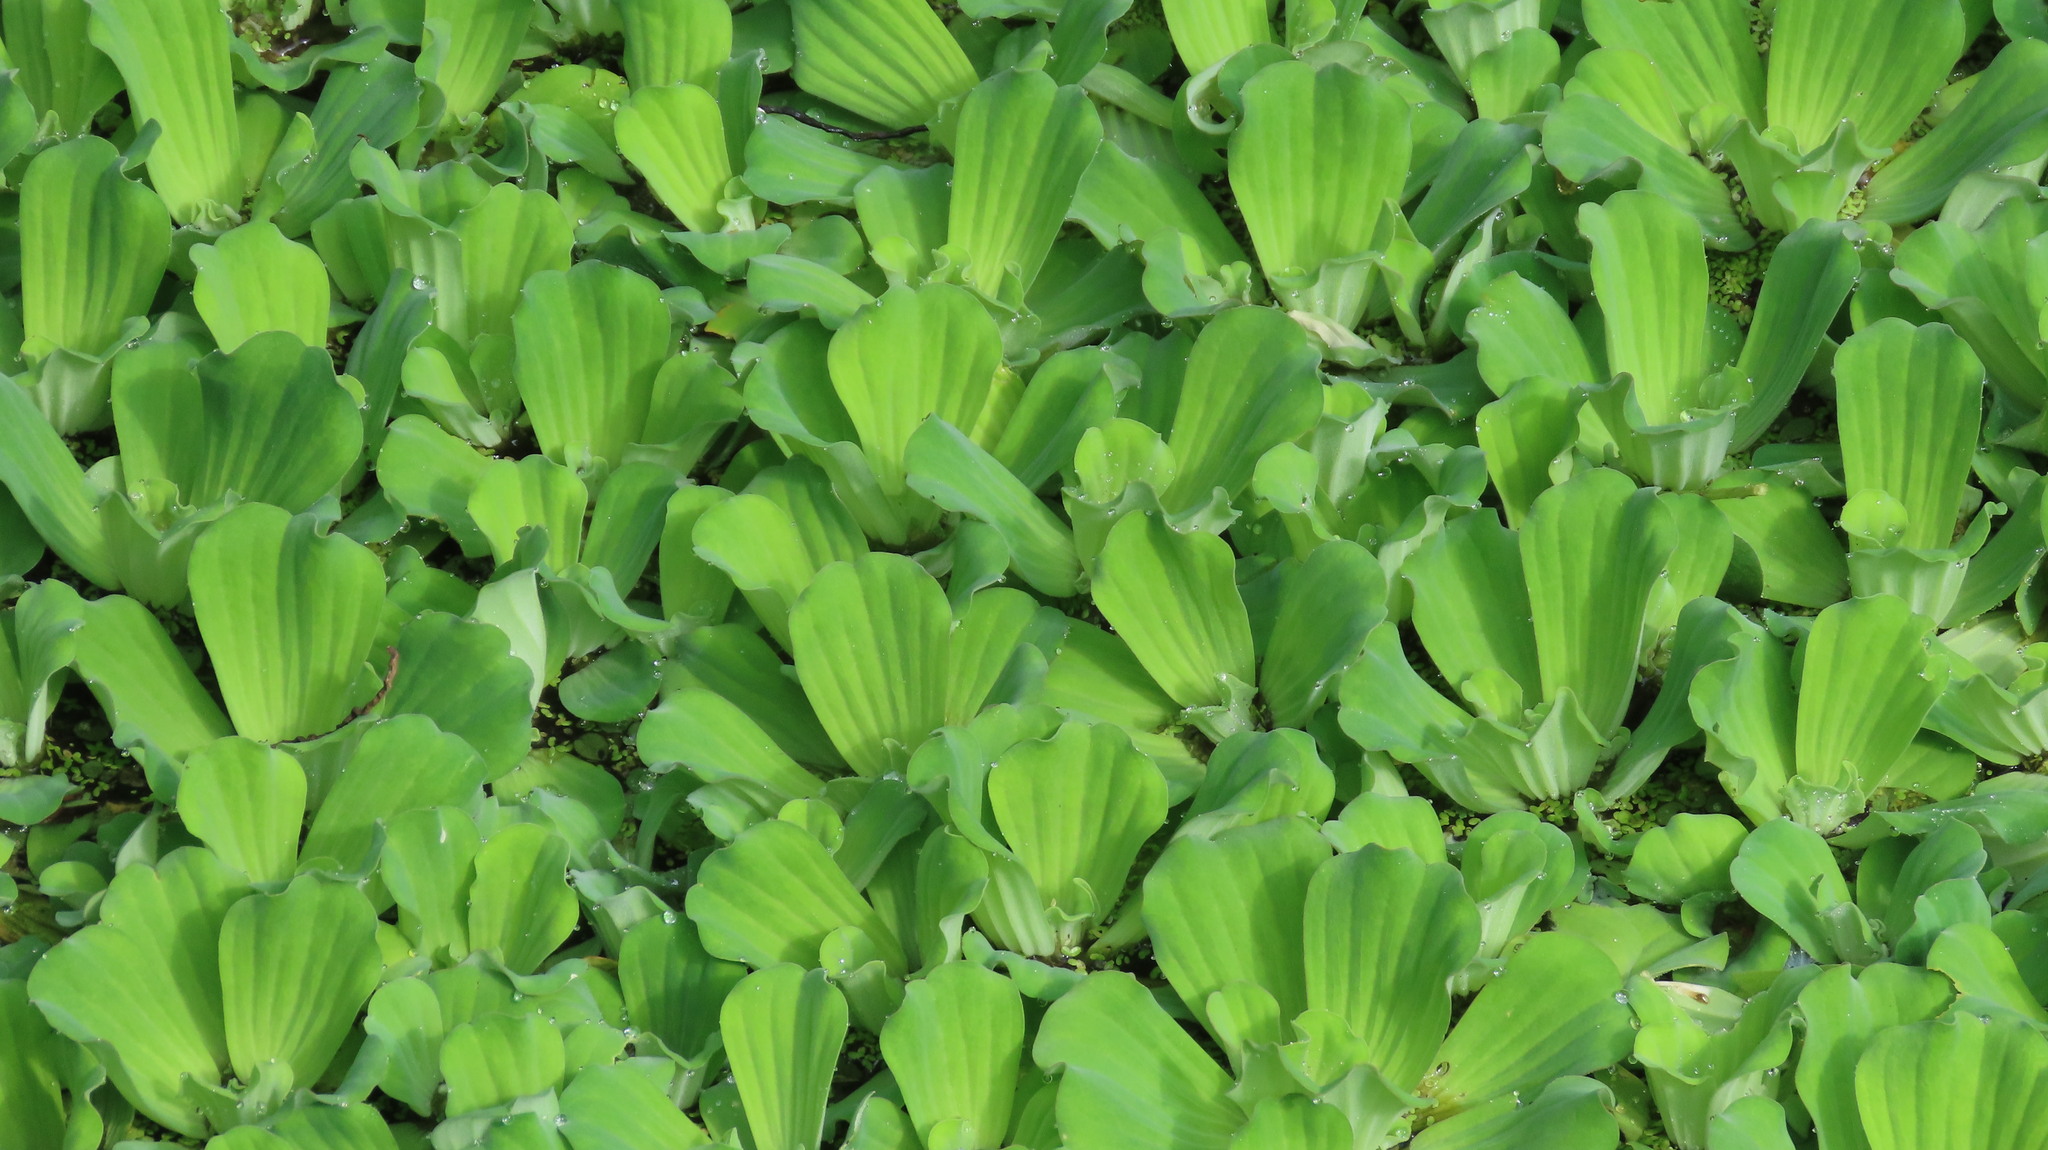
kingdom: Plantae
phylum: Tracheophyta
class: Liliopsida
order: Alismatales
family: Araceae
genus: Pistia
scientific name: Pistia stratiotes
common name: Water lettuce
